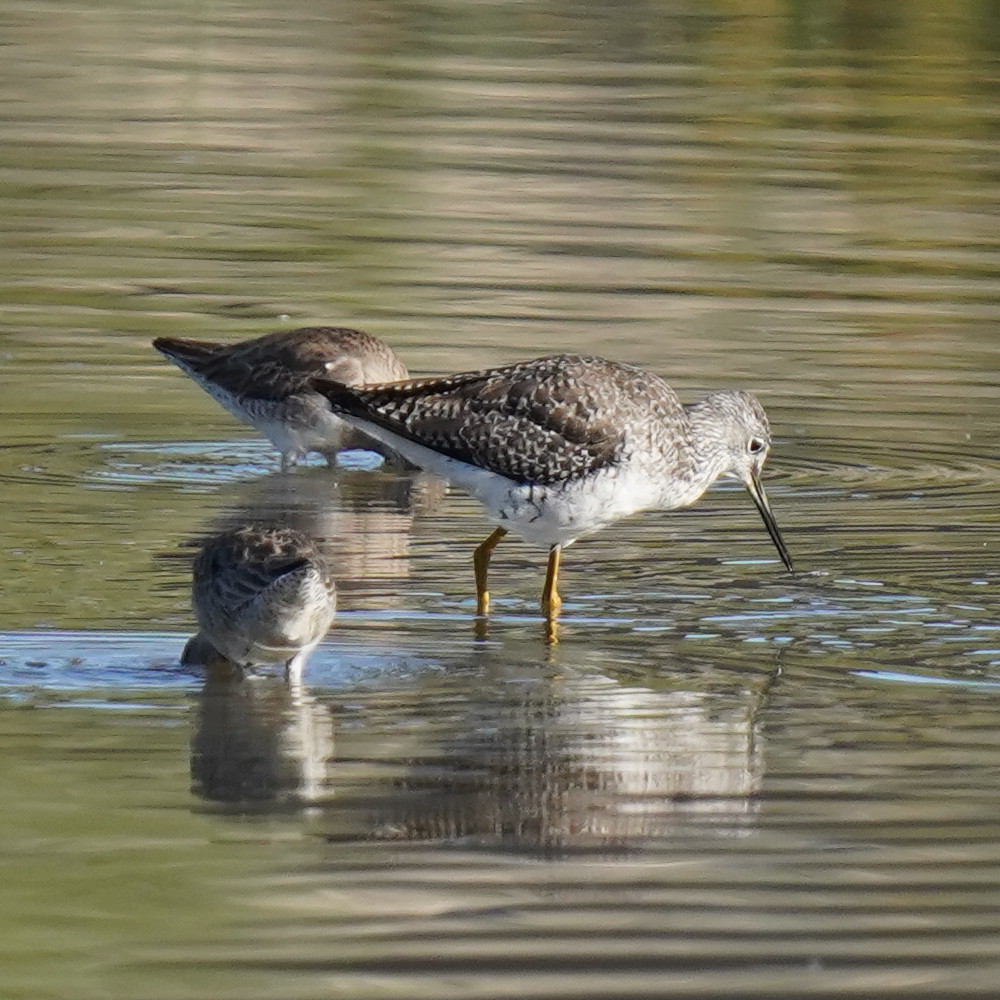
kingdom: Animalia
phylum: Chordata
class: Aves
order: Charadriiformes
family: Scolopacidae
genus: Tringa
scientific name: Tringa melanoleuca
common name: Greater yellowlegs
